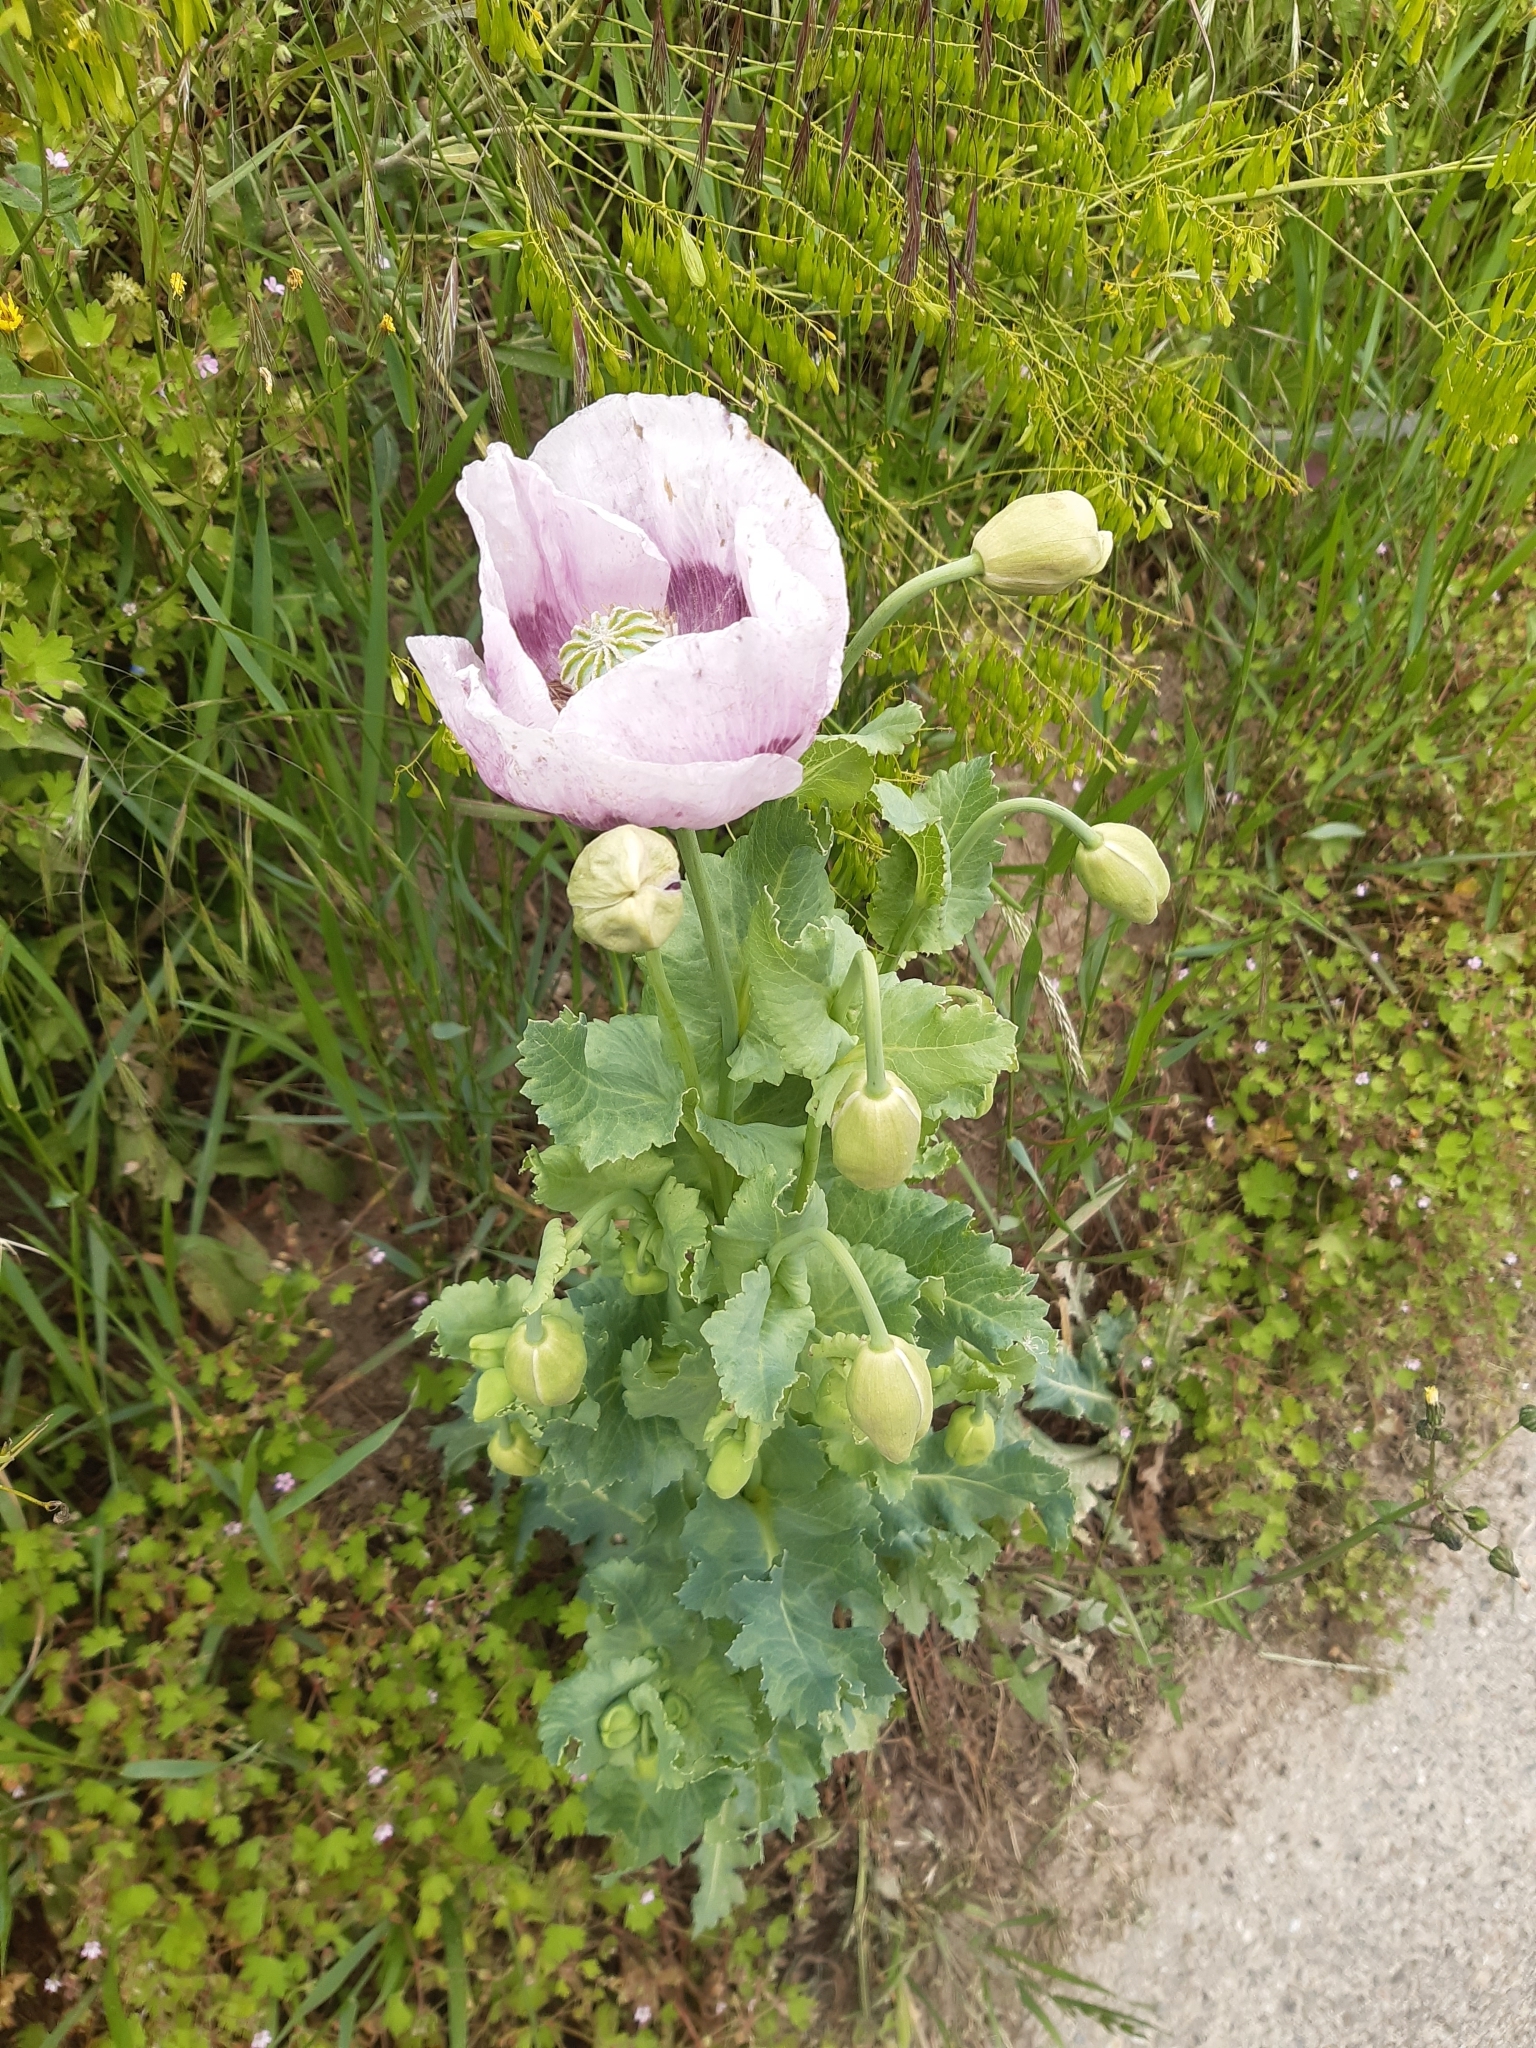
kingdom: Plantae
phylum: Tracheophyta
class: Magnoliopsida
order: Ranunculales
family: Papaveraceae
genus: Papaver
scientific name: Papaver somniferum
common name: Opium poppy
